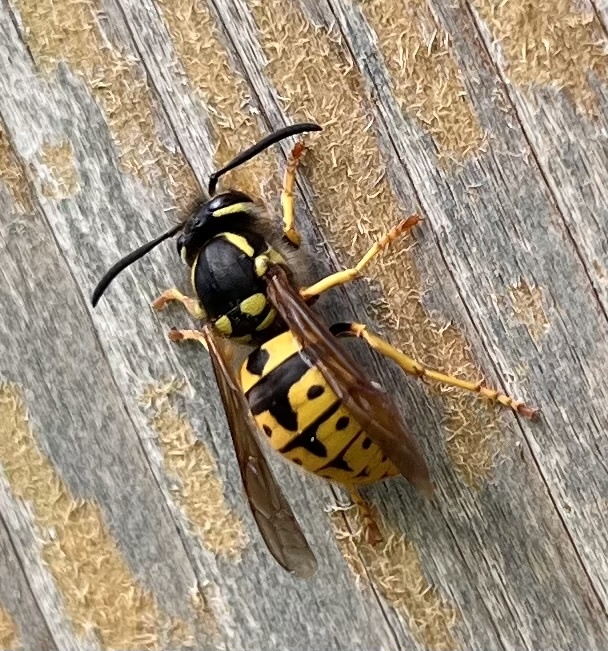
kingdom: Animalia
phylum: Arthropoda
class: Insecta
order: Hymenoptera
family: Vespidae
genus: Vespula
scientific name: Vespula germanica
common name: German wasp
